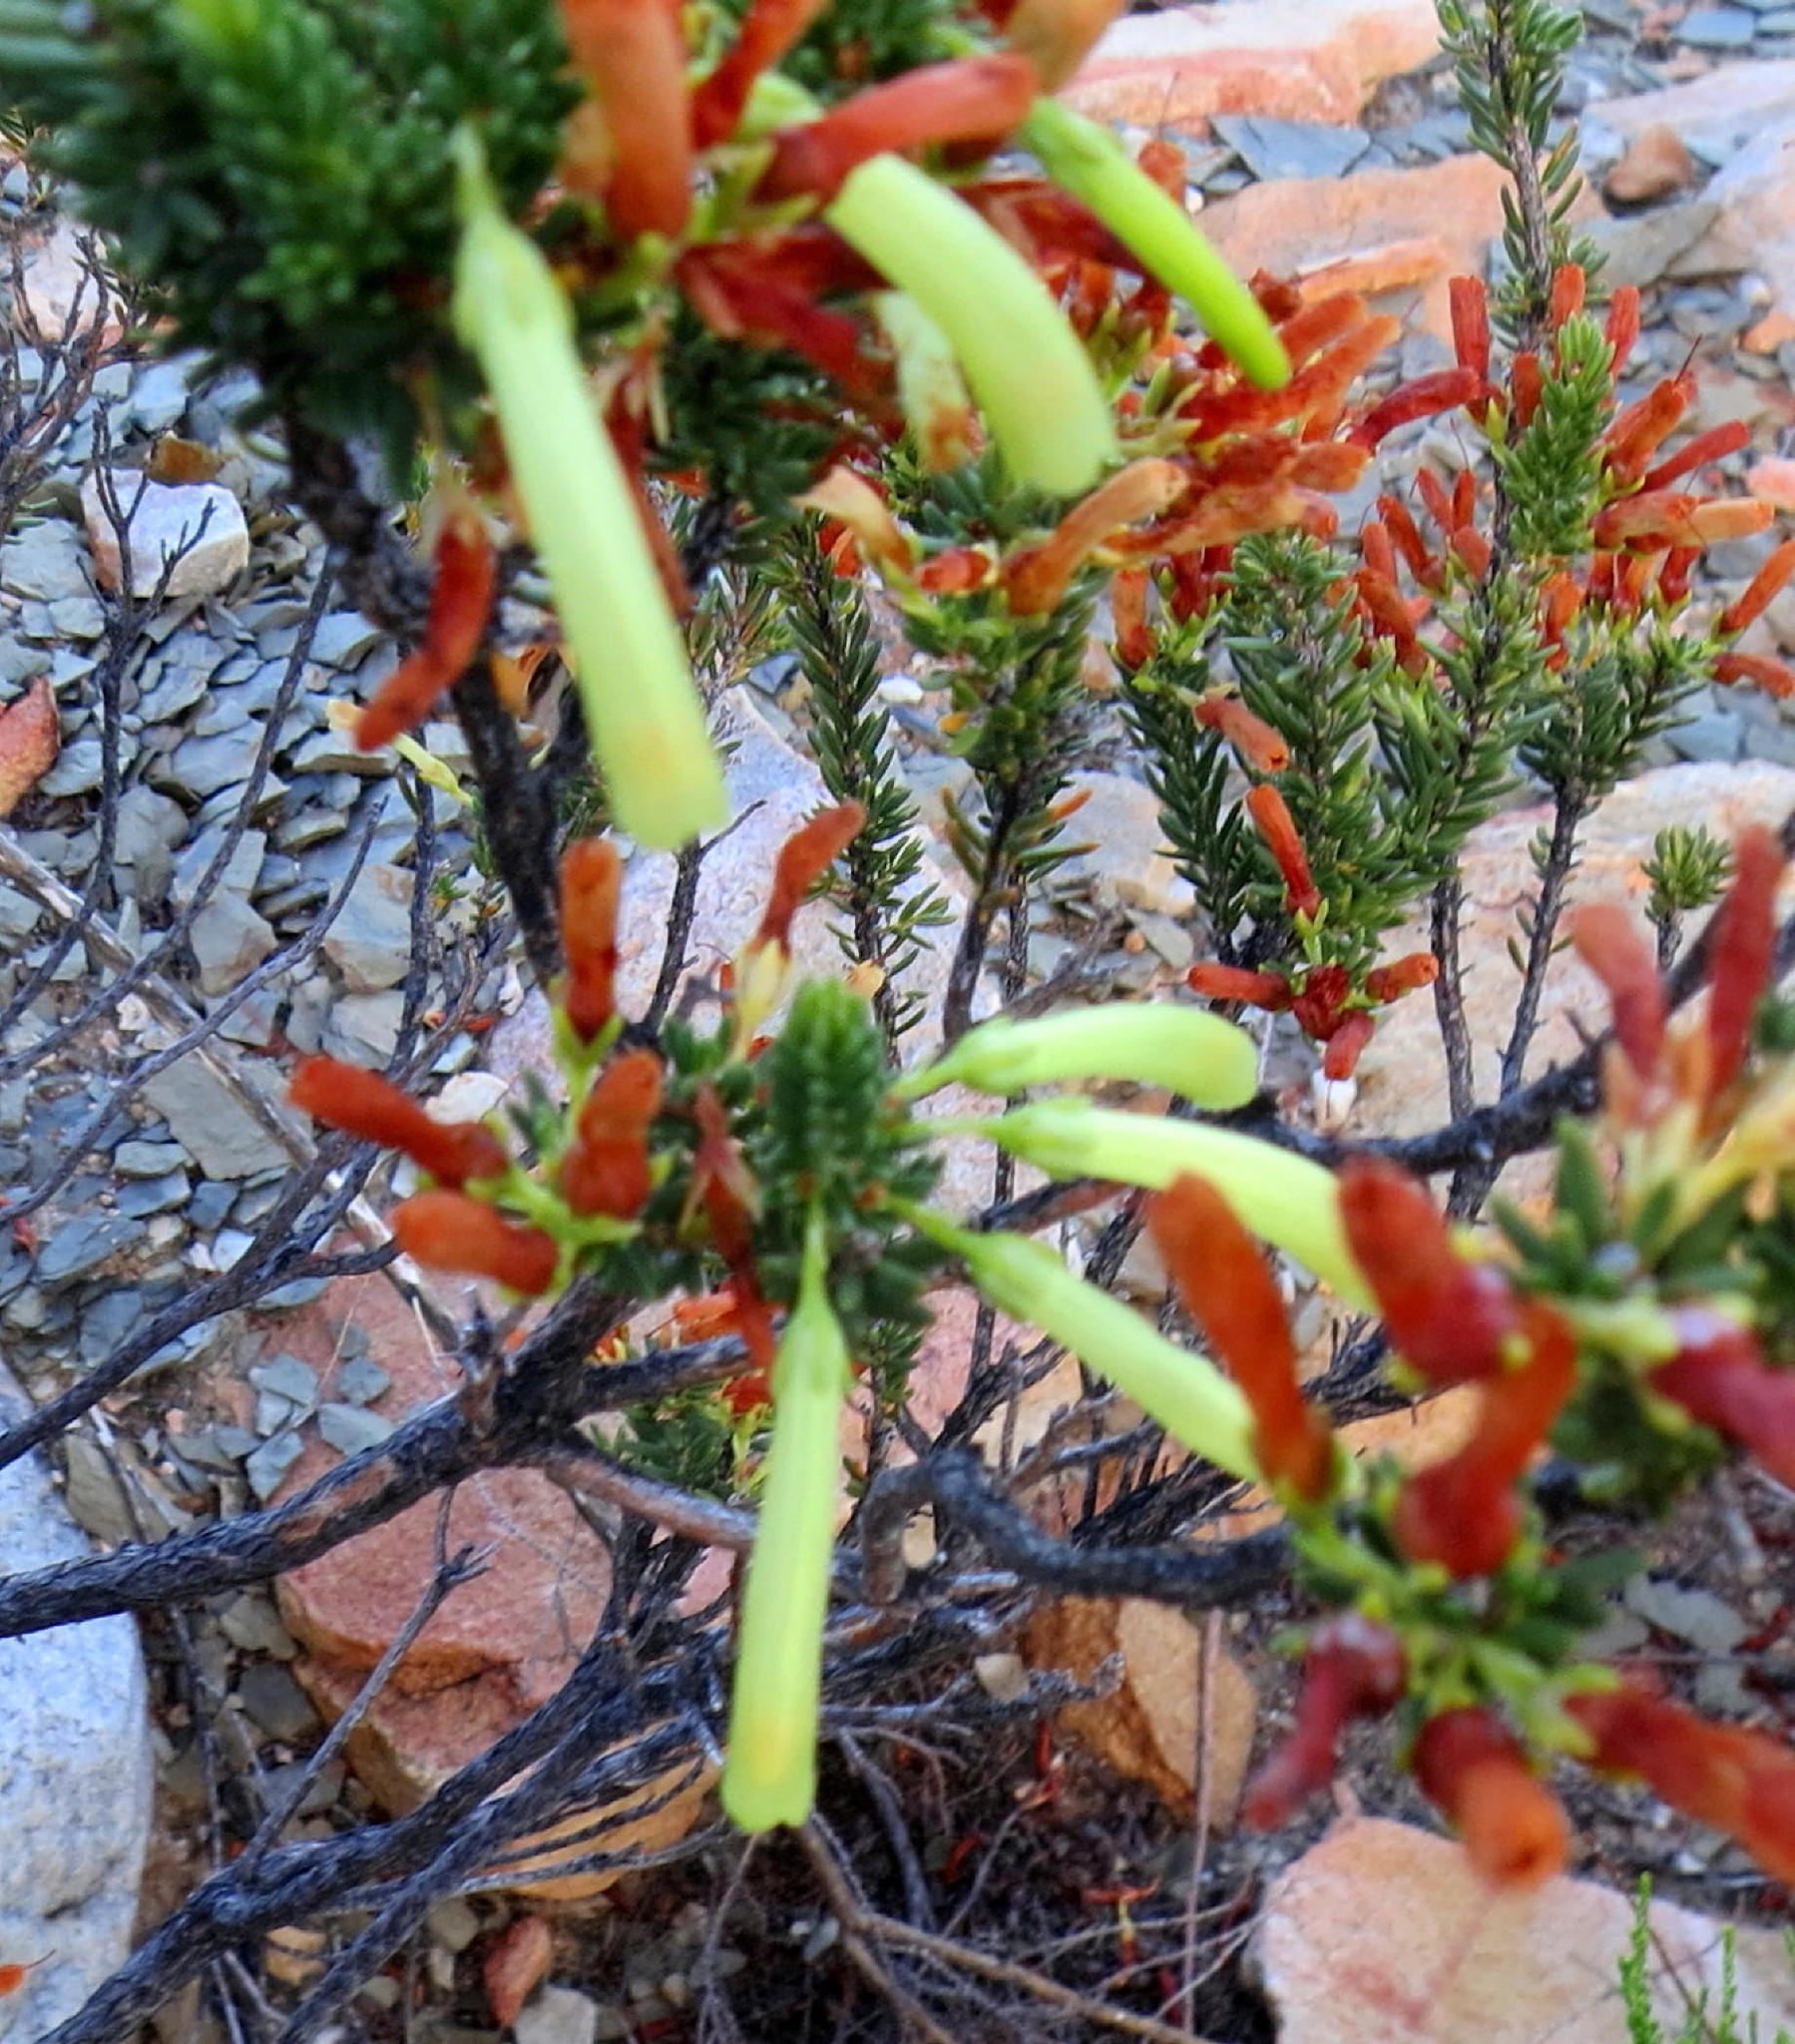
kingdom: Plantae
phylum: Tracheophyta
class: Magnoliopsida
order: Ericales
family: Ericaceae
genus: Erica
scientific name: Erica maximiliani
